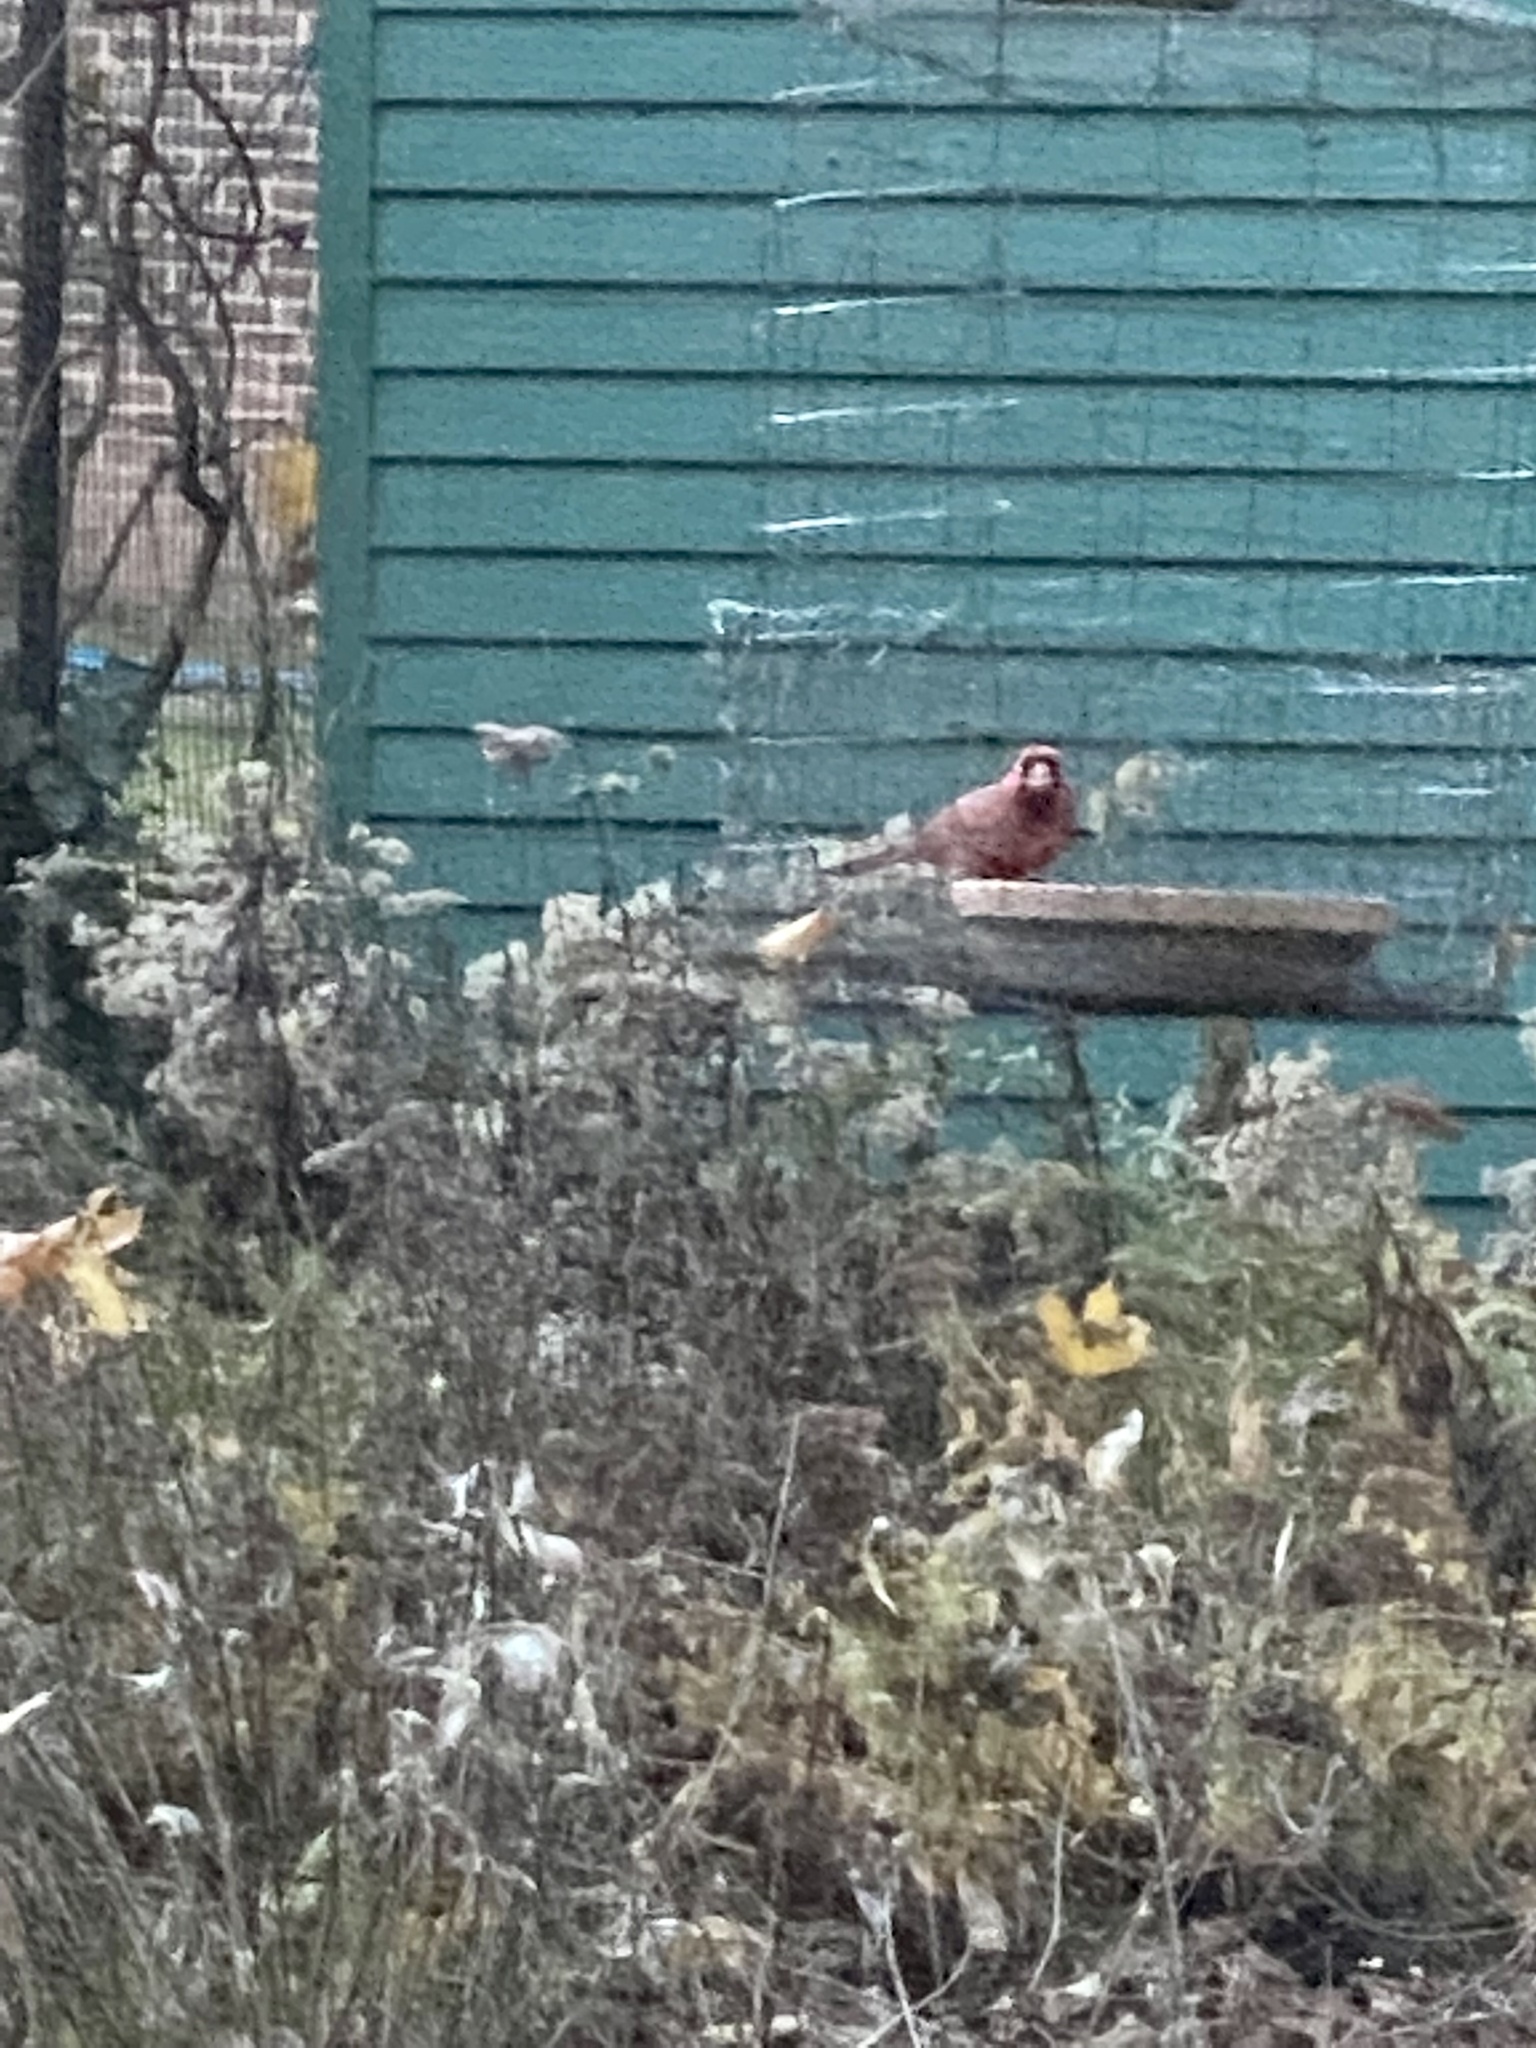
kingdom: Animalia
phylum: Chordata
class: Aves
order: Passeriformes
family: Cardinalidae
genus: Cardinalis
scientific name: Cardinalis cardinalis
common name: Northern cardinal
